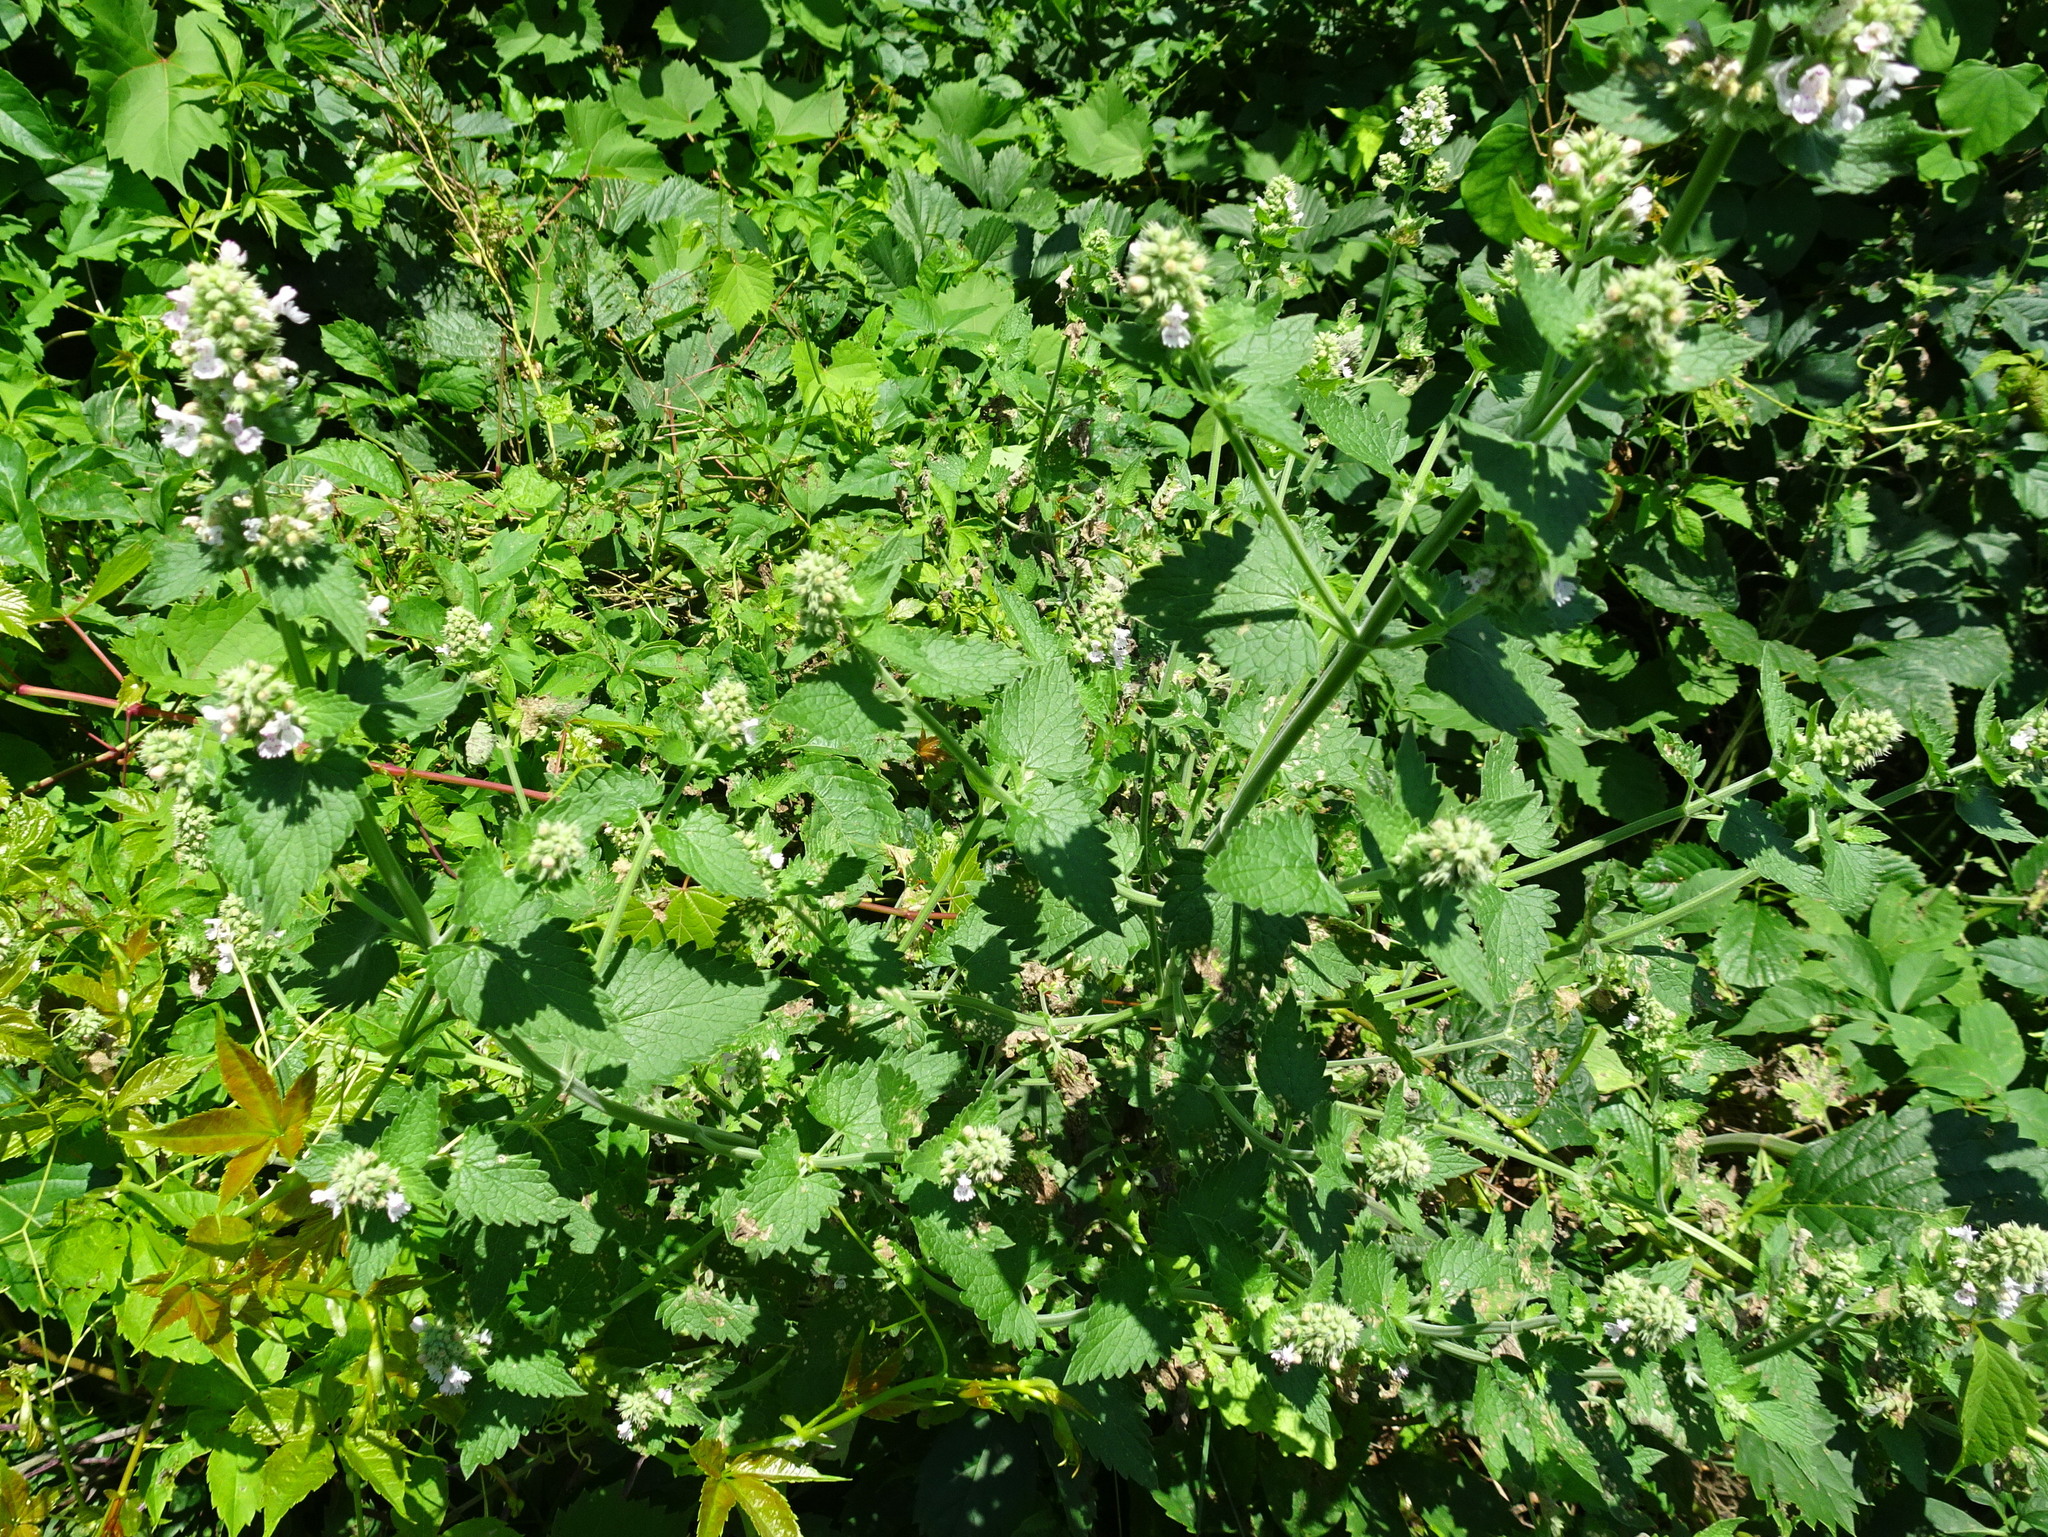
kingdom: Plantae
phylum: Tracheophyta
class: Magnoliopsida
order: Lamiales
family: Lamiaceae
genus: Nepeta
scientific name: Nepeta cataria
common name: Catnip
